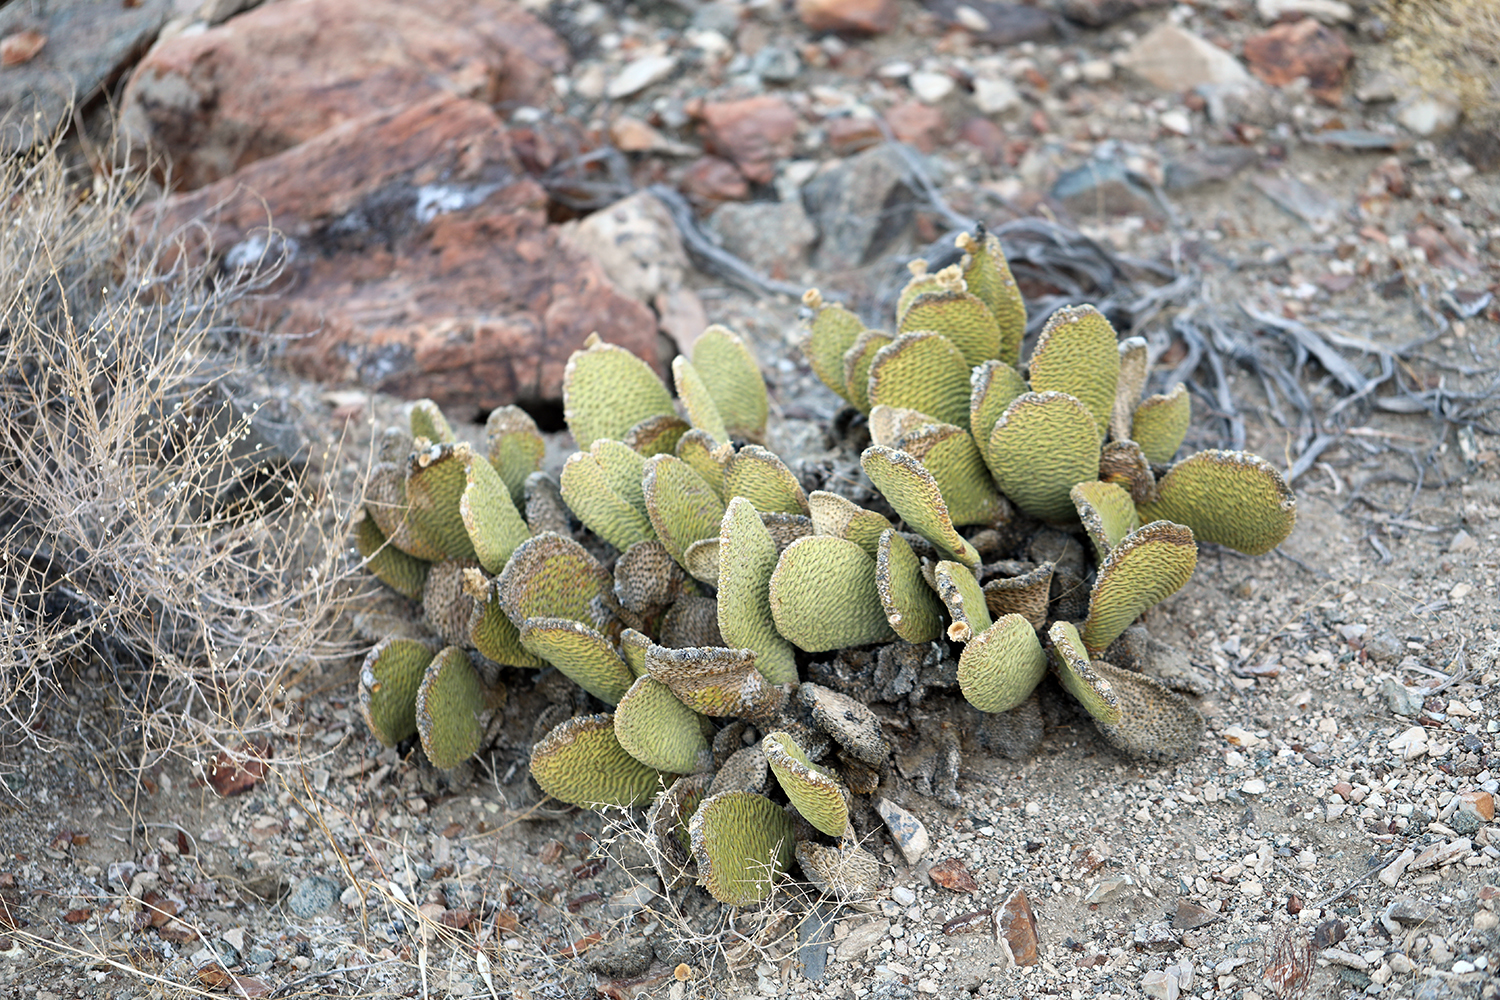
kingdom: Plantae
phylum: Tracheophyta
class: Magnoliopsida
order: Caryophyllales
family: Cactaceae
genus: Opuntia
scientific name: Opuntia basilaris
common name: Beavertail prickly-pear
